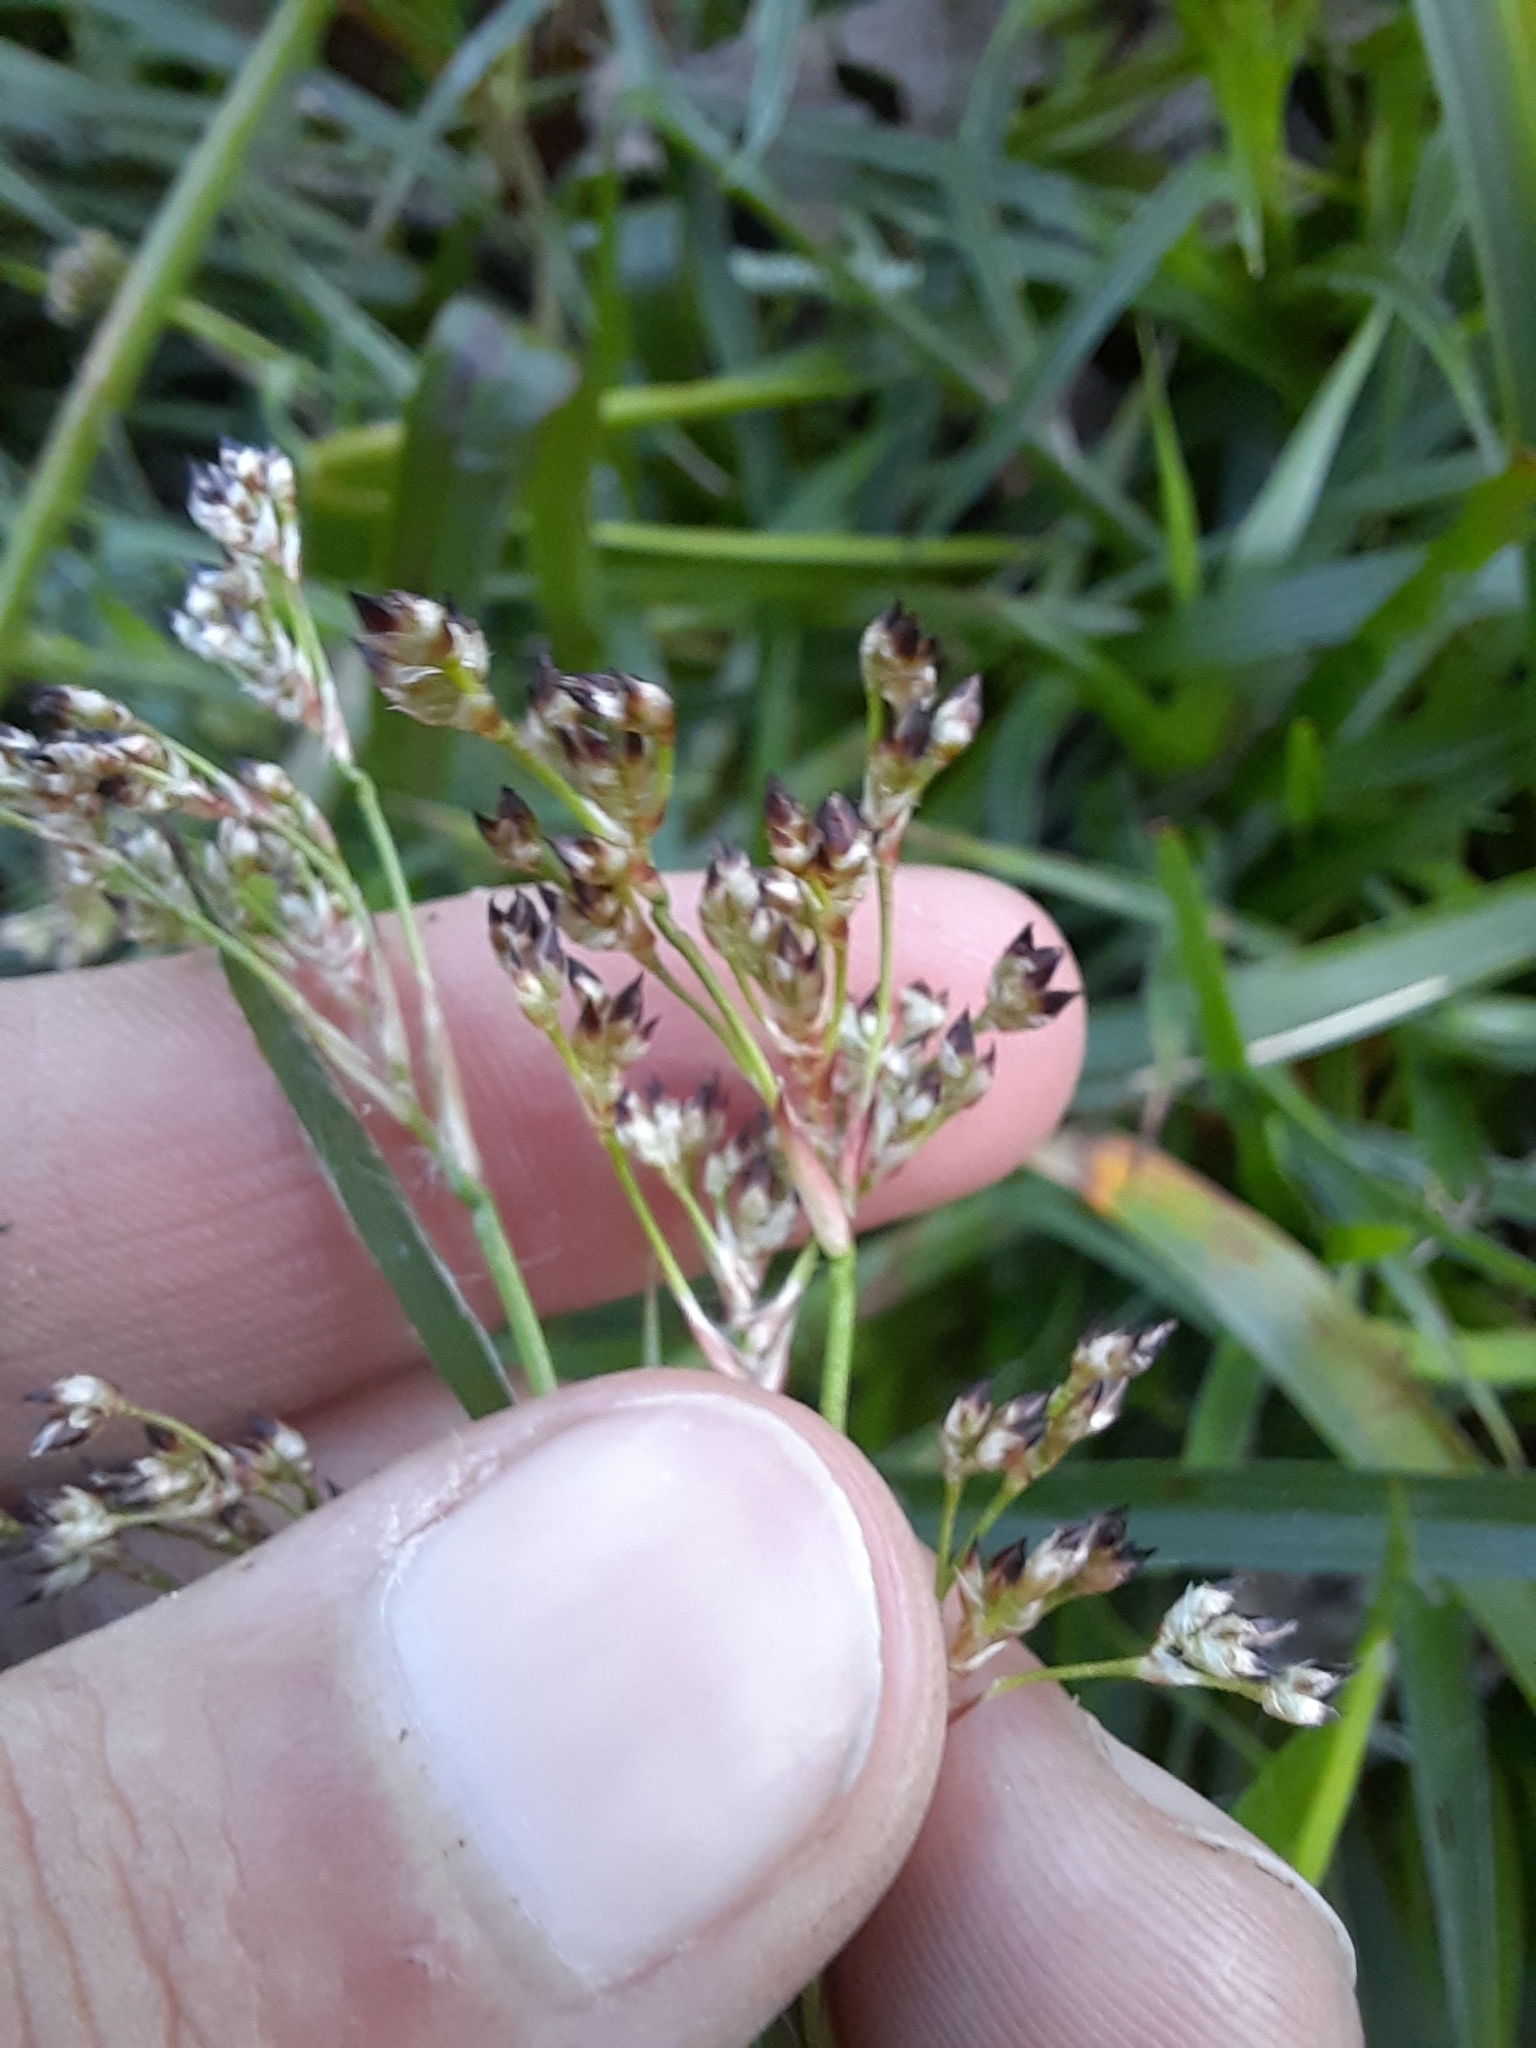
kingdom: Plantae
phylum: Tracheophyta
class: Liliopsida
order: Poales
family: Juncaceae
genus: Luzula
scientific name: Luzula sylvatica
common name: Great wood-rush
